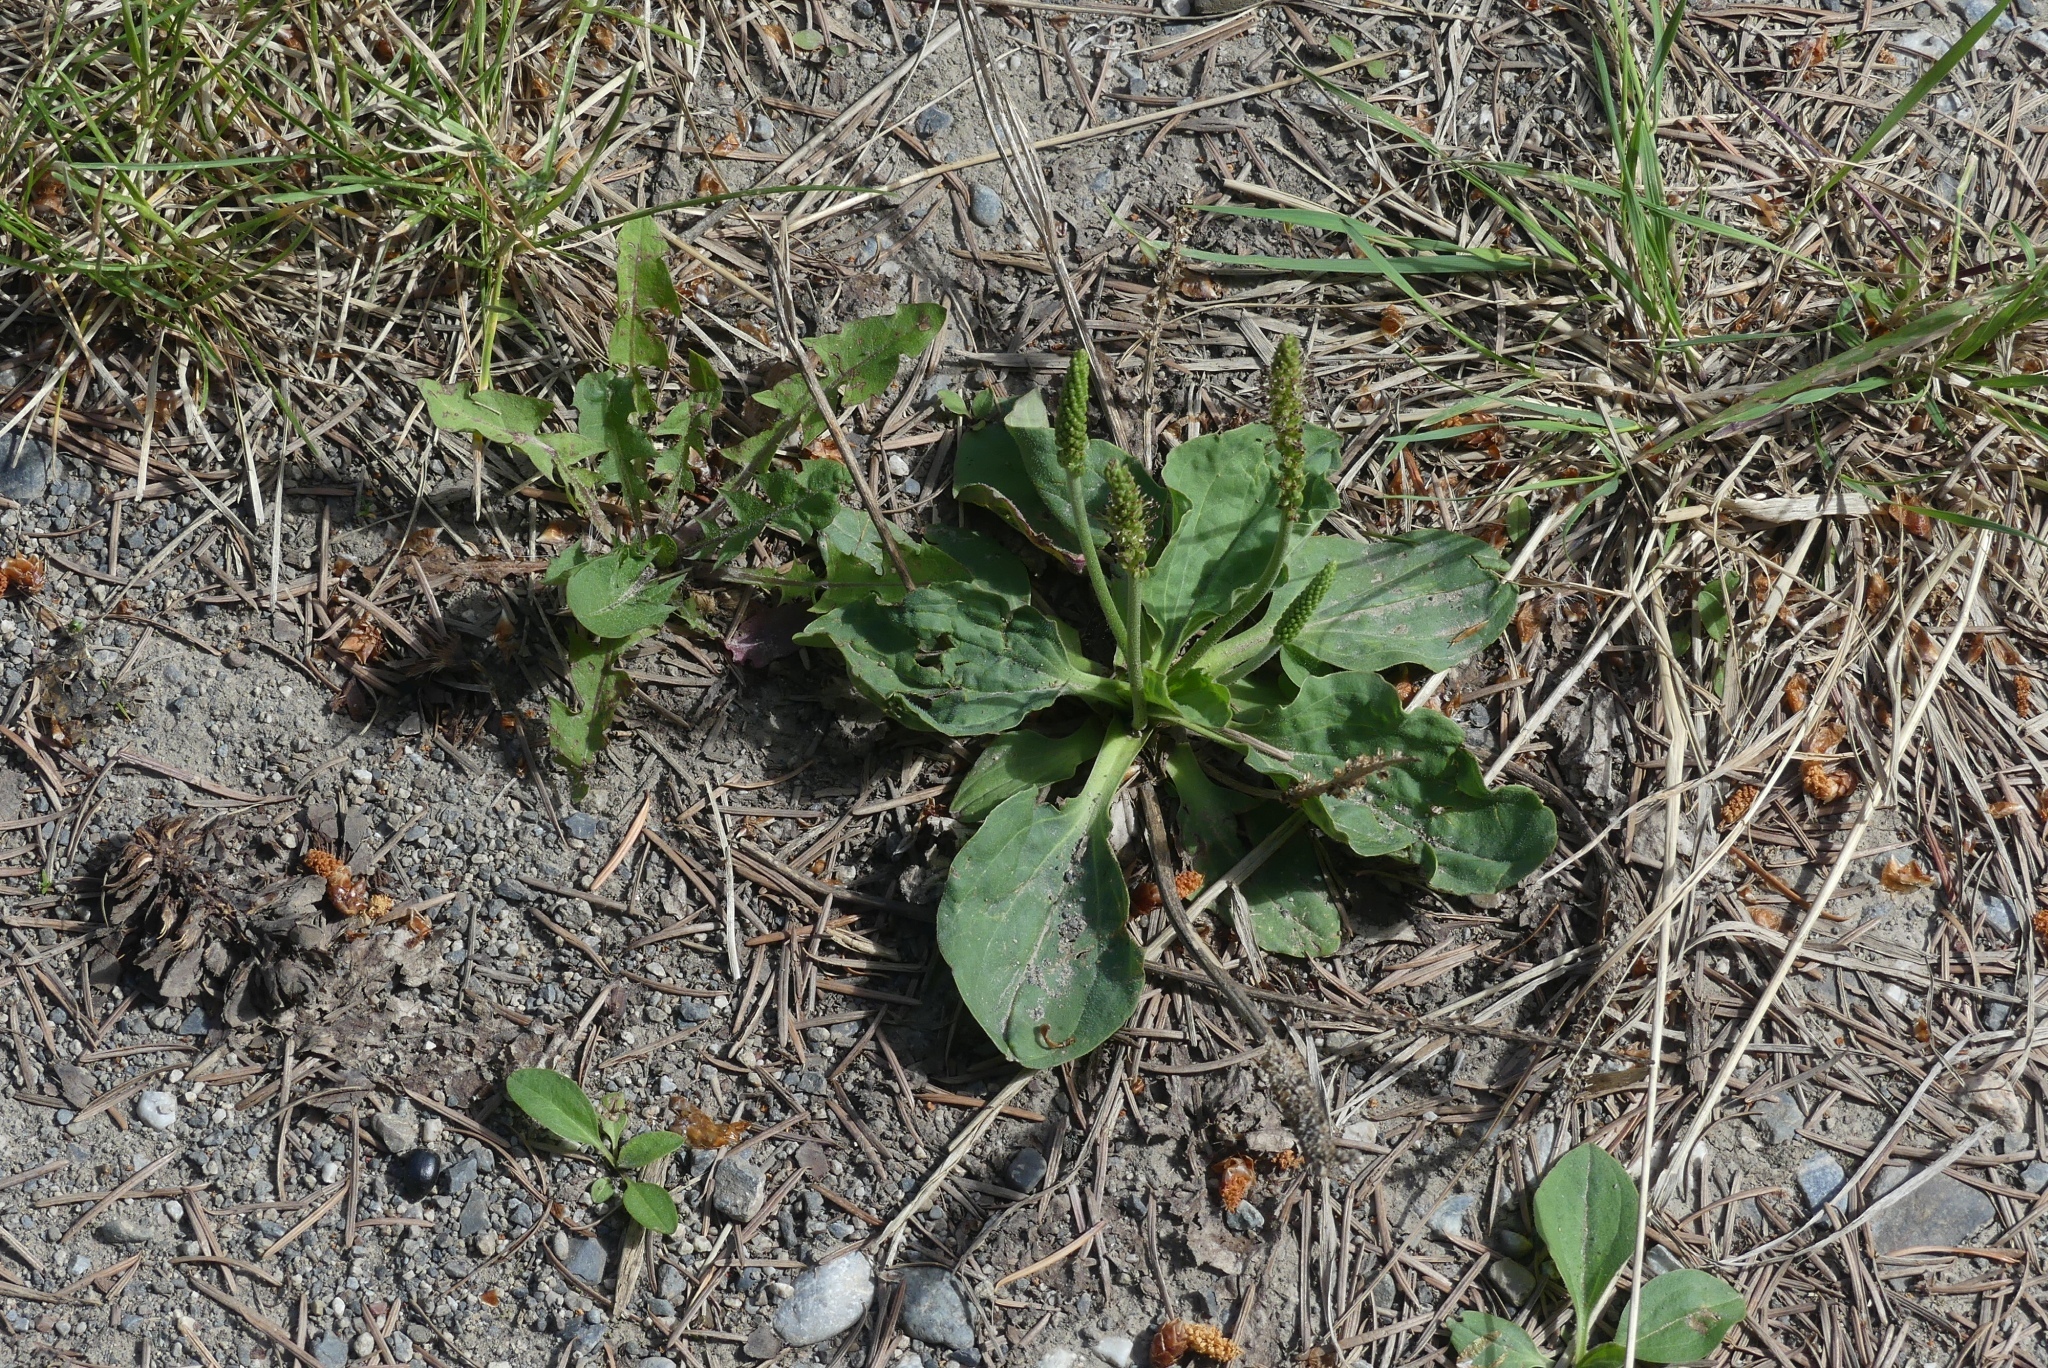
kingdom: Plantae
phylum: Tracheophyta
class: Magnoliopsida
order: Lamiales
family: Plantaginaceae
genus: Plantago
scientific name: Plantago major
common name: Common plantain
